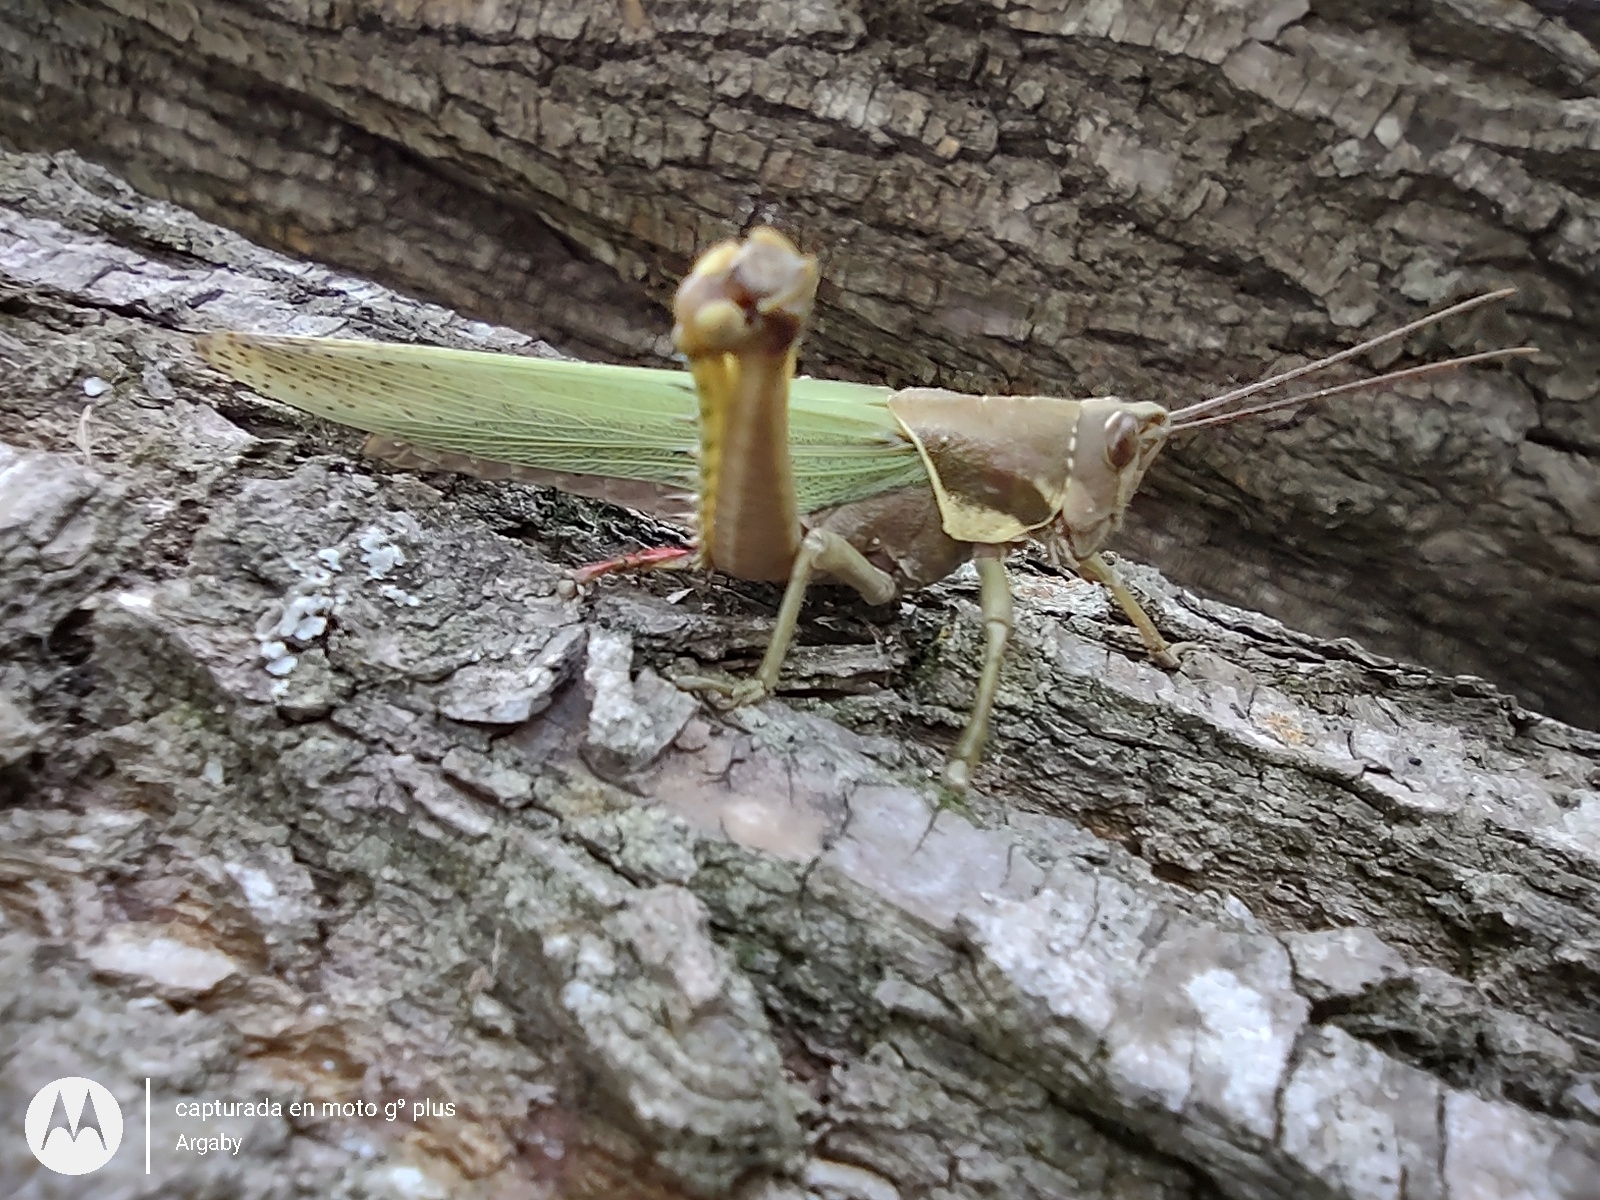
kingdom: Animalia
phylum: Arthropoda
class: Insecta
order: Orthoptera
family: Romaleidae
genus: Coryacris
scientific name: Coryacris angustipennis
